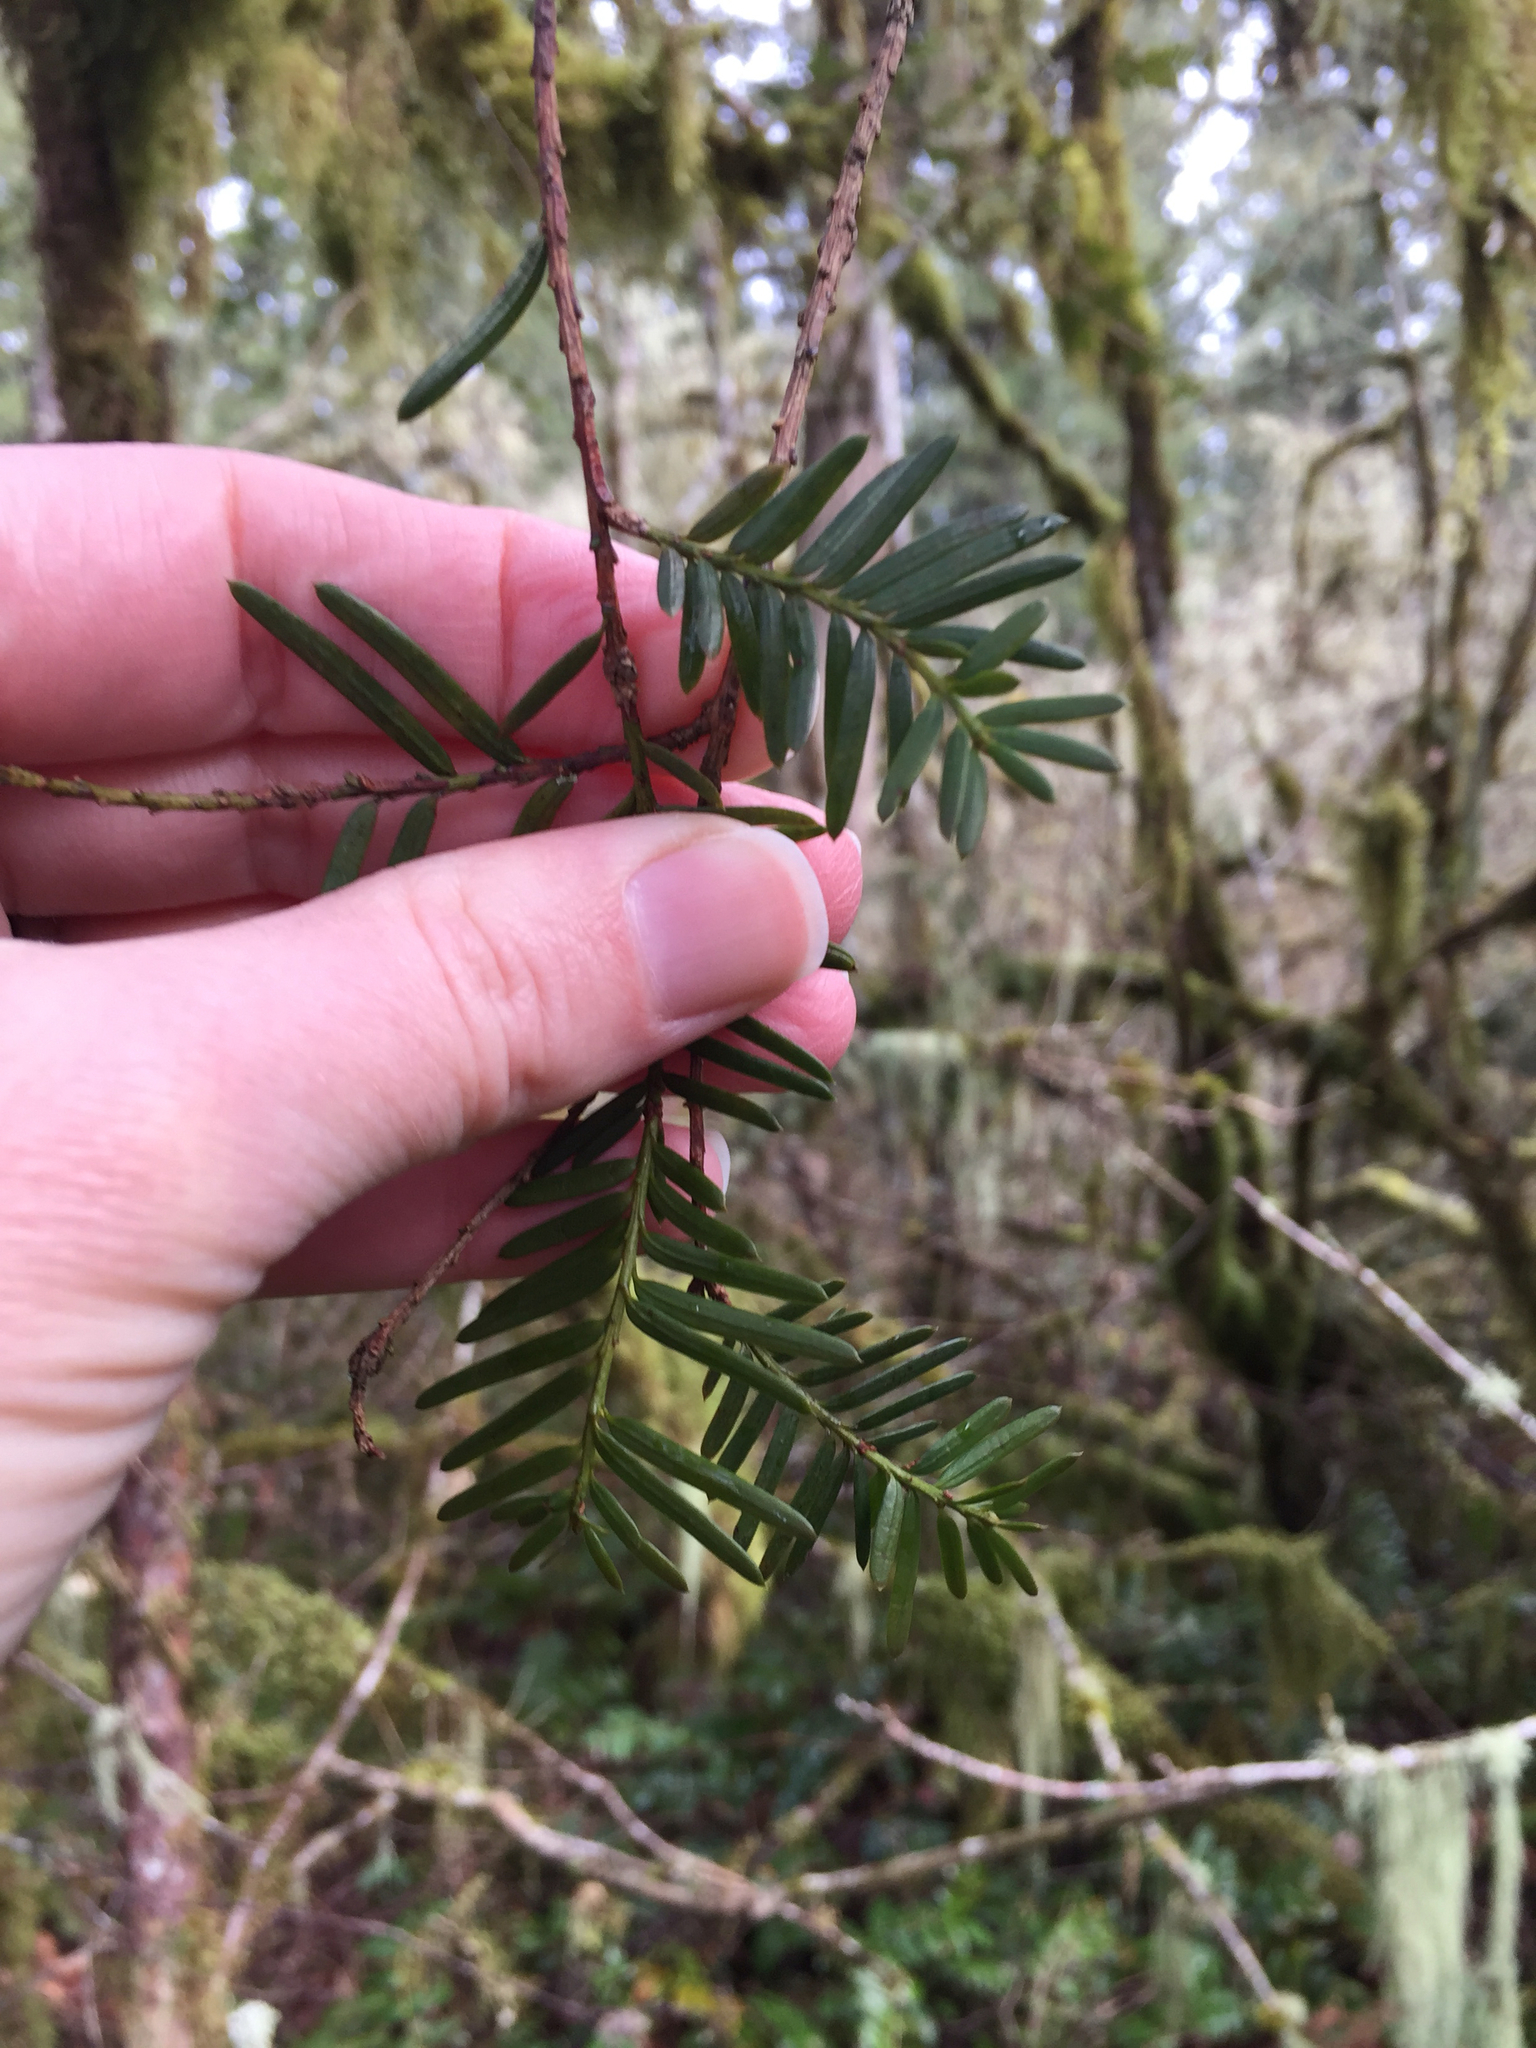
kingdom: Plantae
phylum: Tracheophyta
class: Pinopsida
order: Pinales
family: Taxaceae
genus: Taxus
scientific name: Taxus brevifolia
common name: Pacific yew
